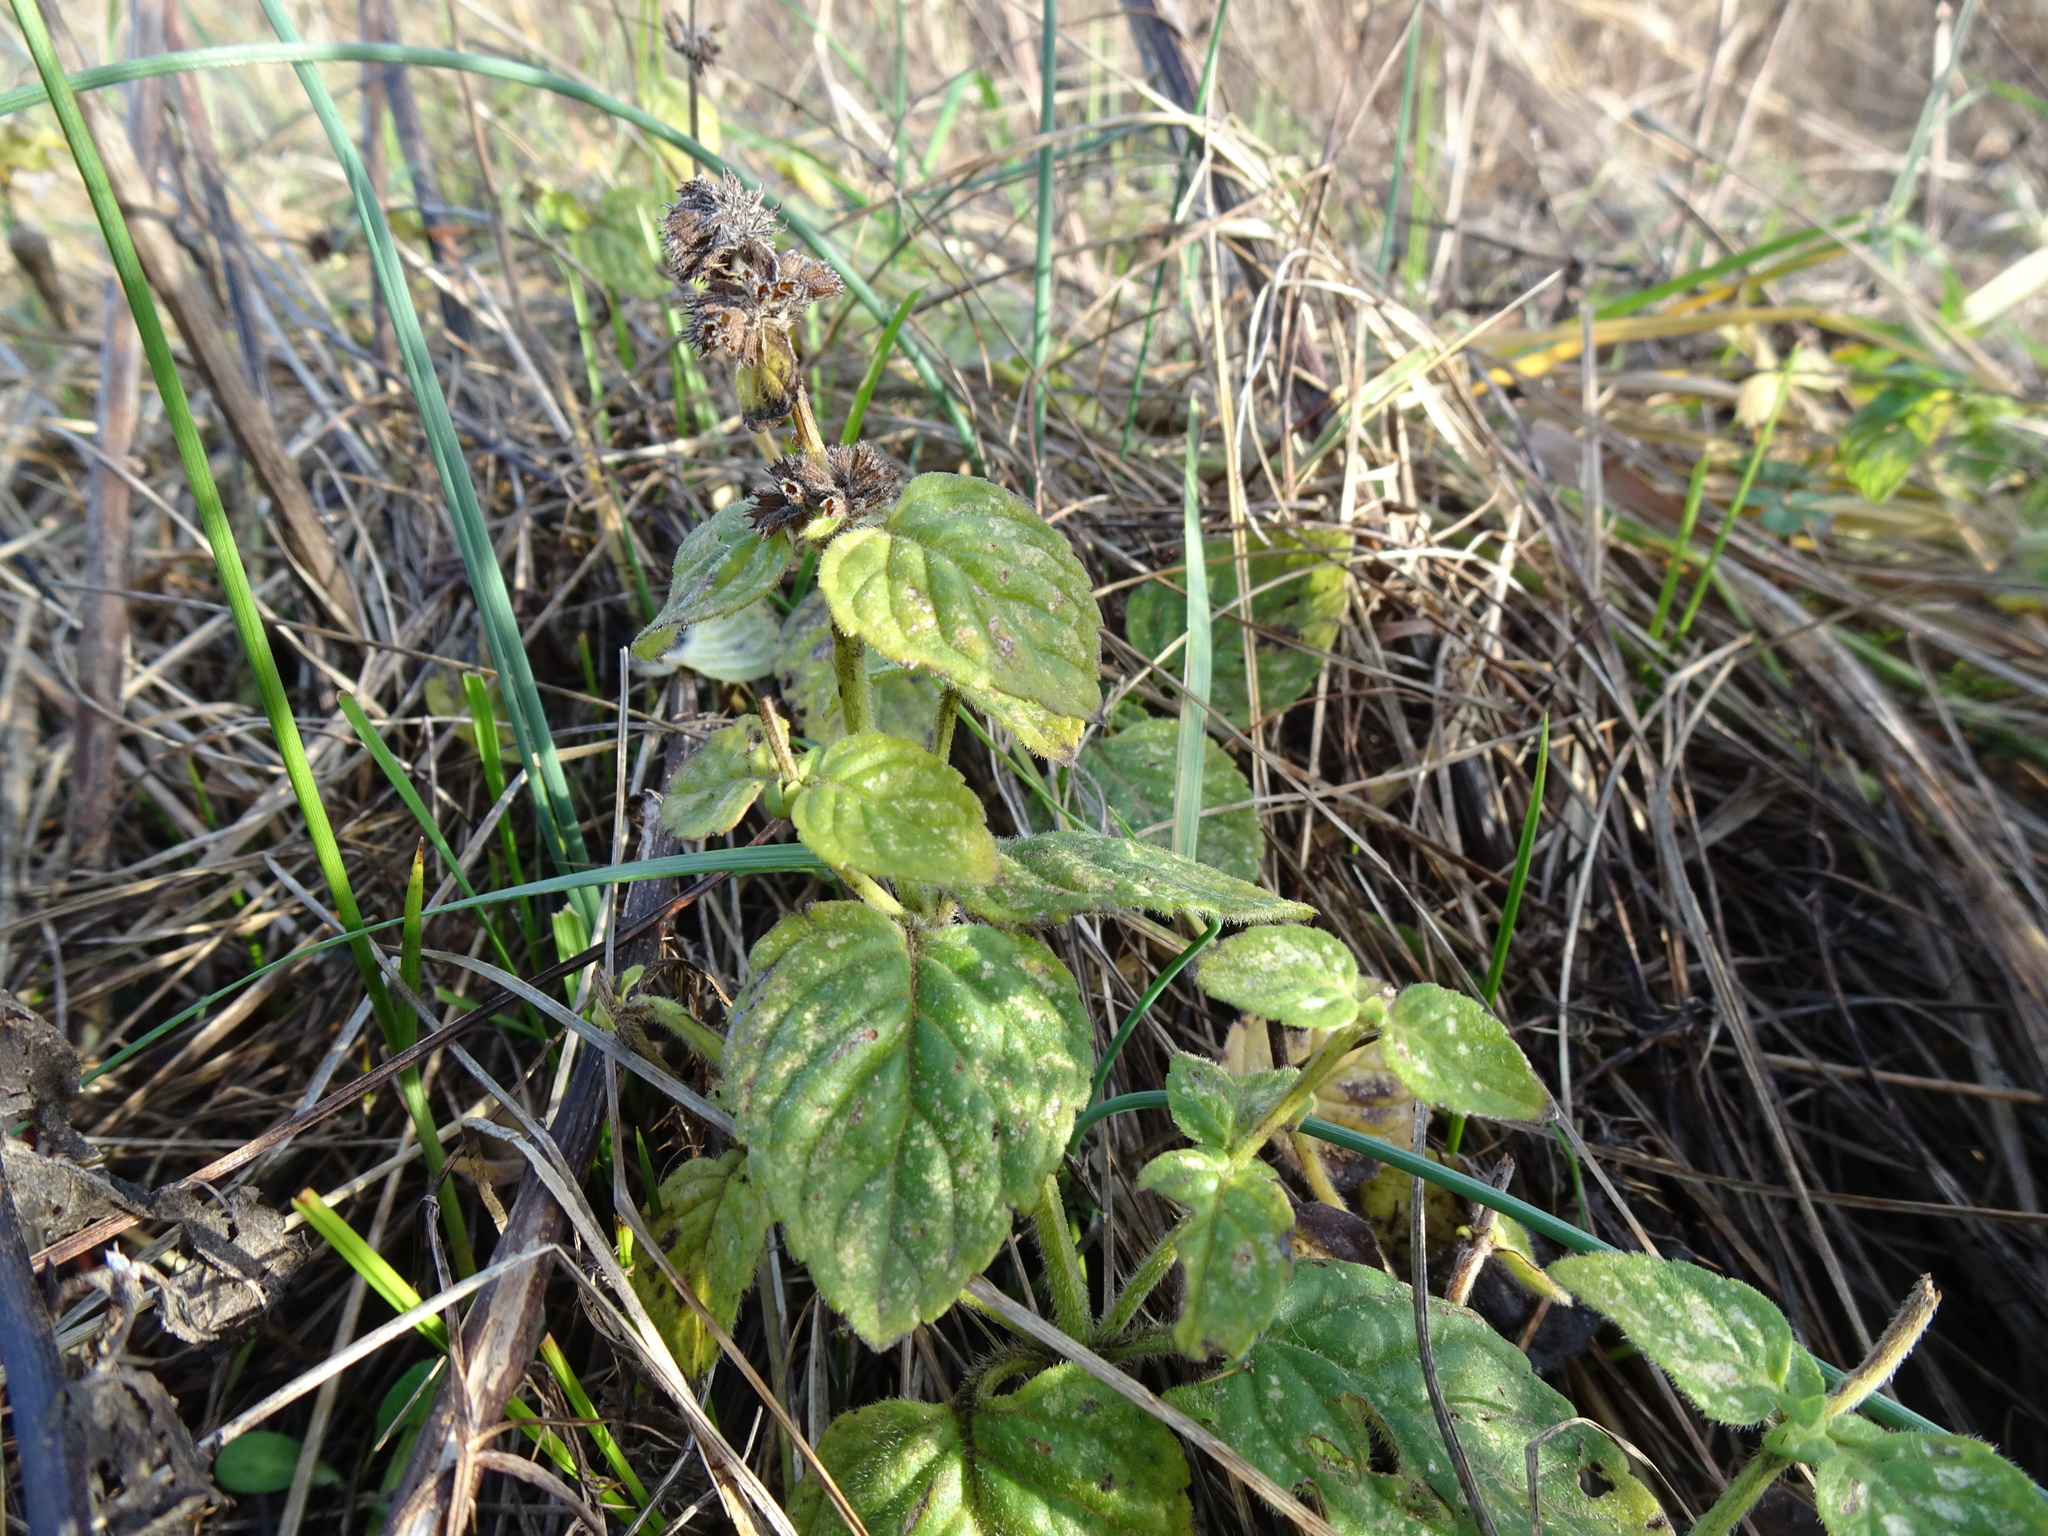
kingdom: Plantae
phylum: Tracheophyta
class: Magnoliopsida
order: Lamiales
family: Lamiaceae
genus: Mentha
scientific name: Mentha aquatica
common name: Water mint
